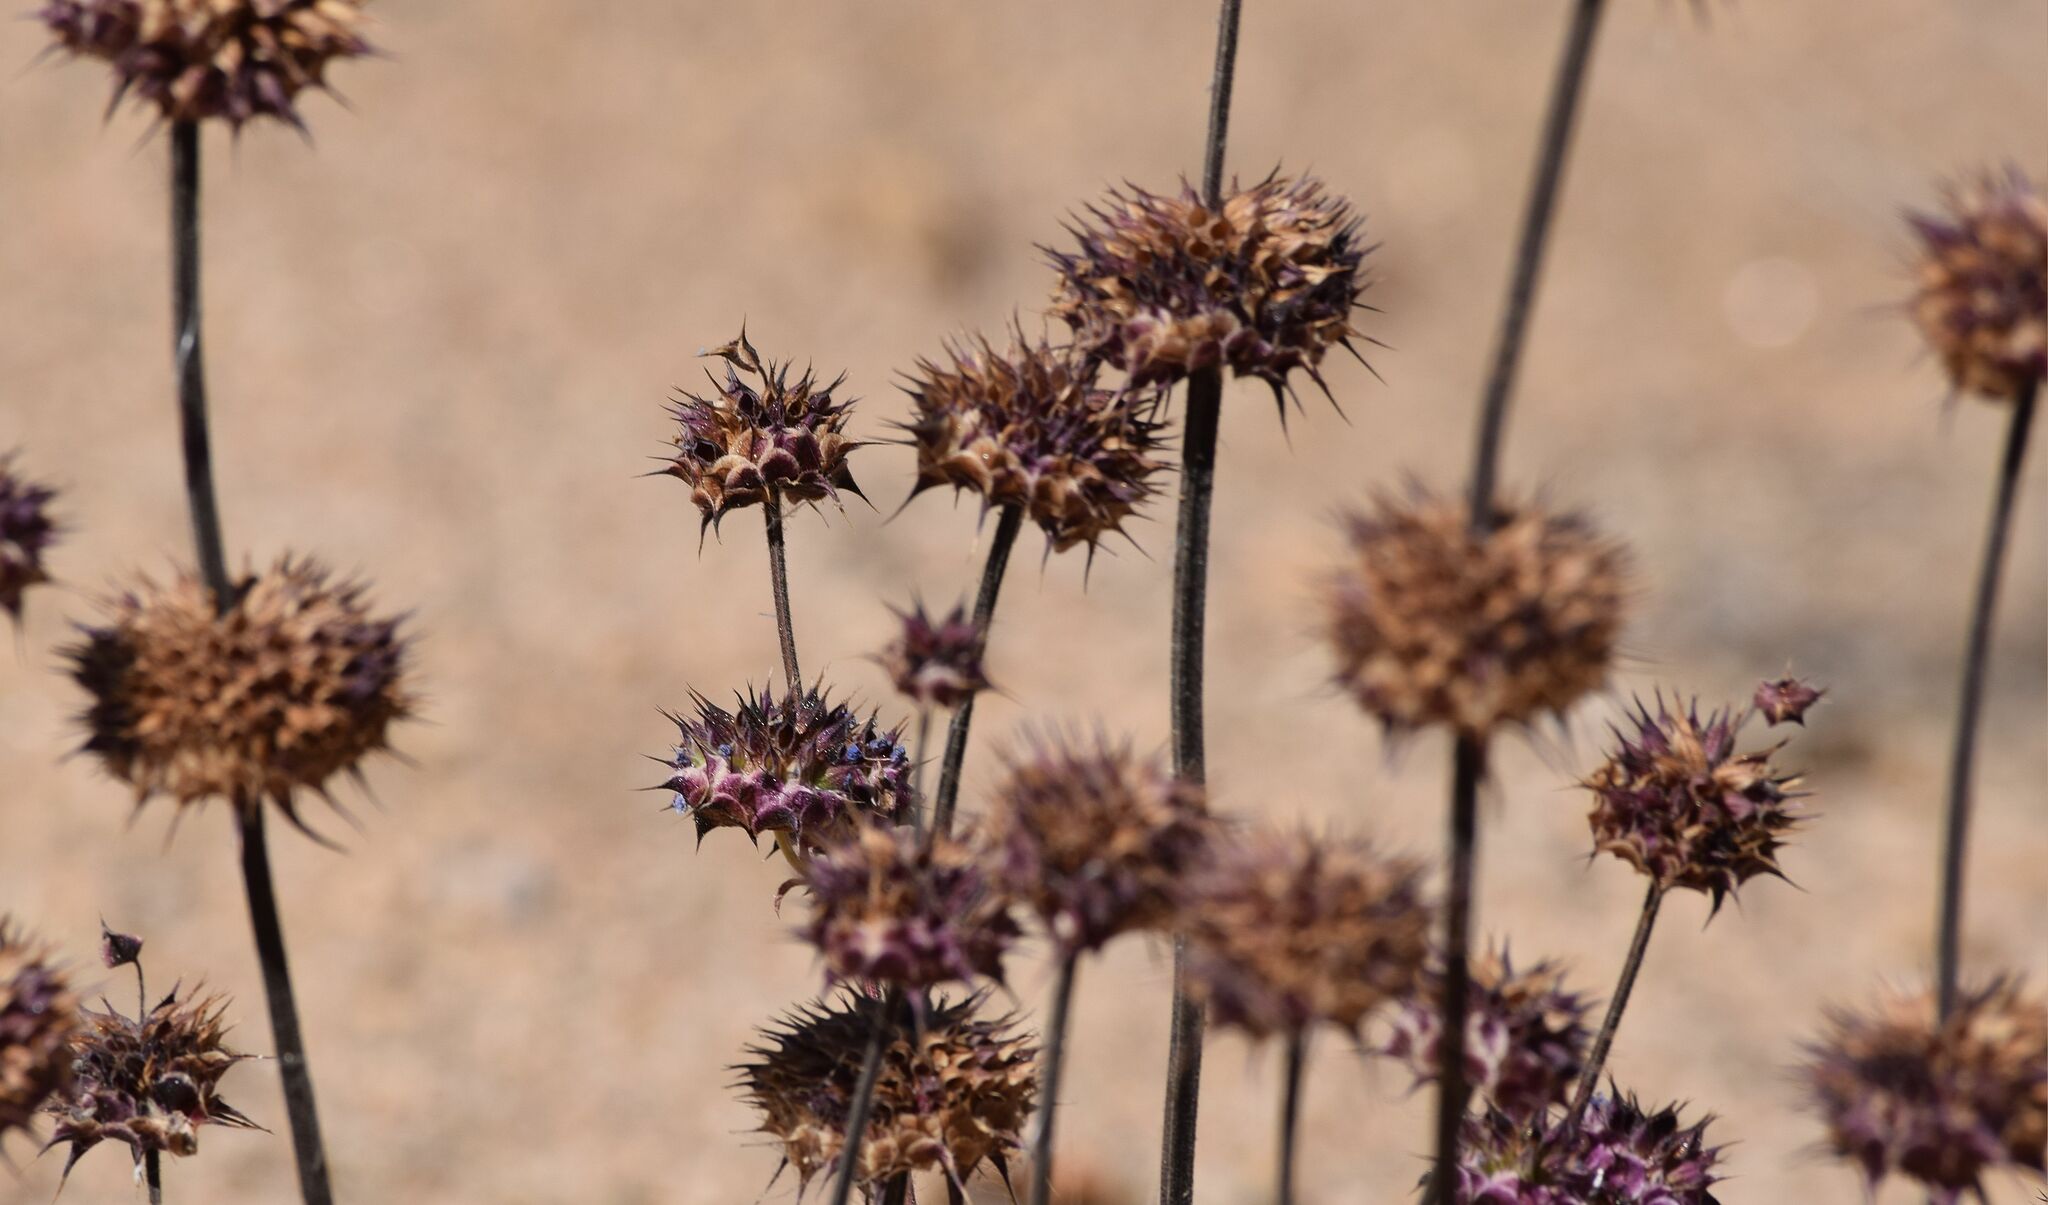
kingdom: Plantae
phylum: Tracheophyta
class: Magnoliopsida
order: Lamiales
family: Lamiaceae
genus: Salvia
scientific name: Salvia columbariae
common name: Chia
